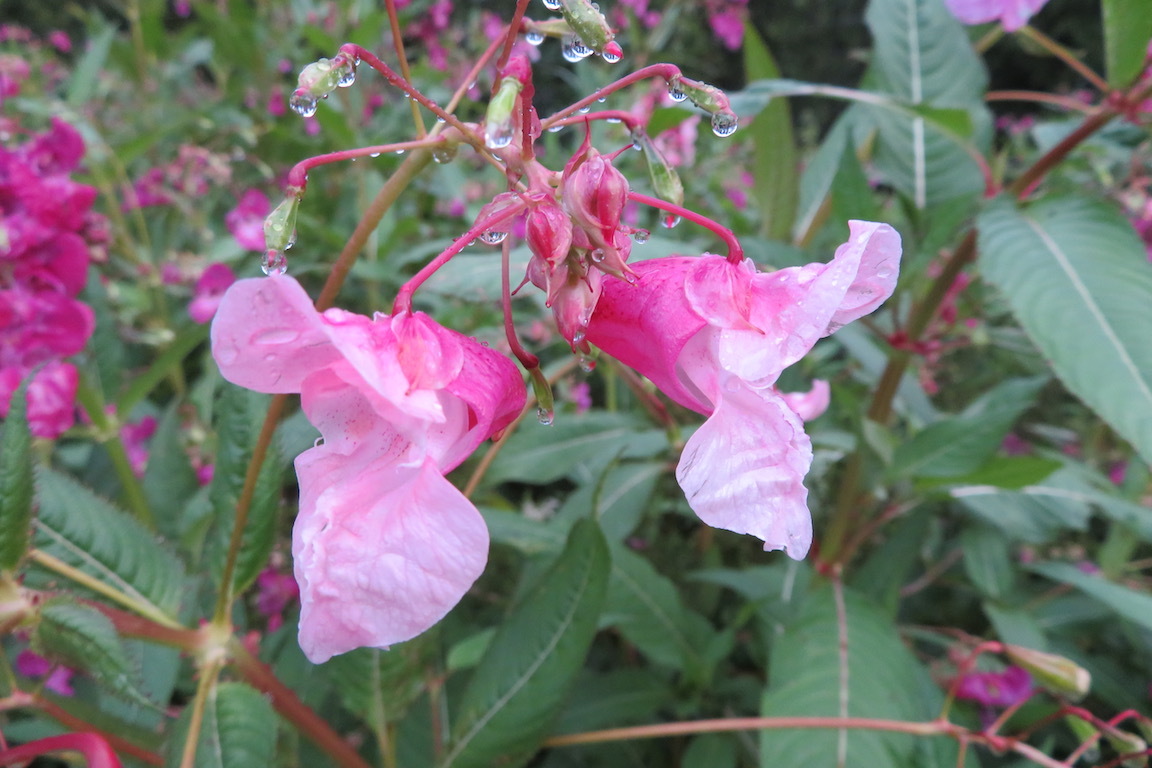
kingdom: Plantae
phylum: Tracheophyta
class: Magnoliopsida
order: Ericales
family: Balsaminaceae
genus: Impatiens
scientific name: Impatiens glandulifera
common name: Himalayan balsam
